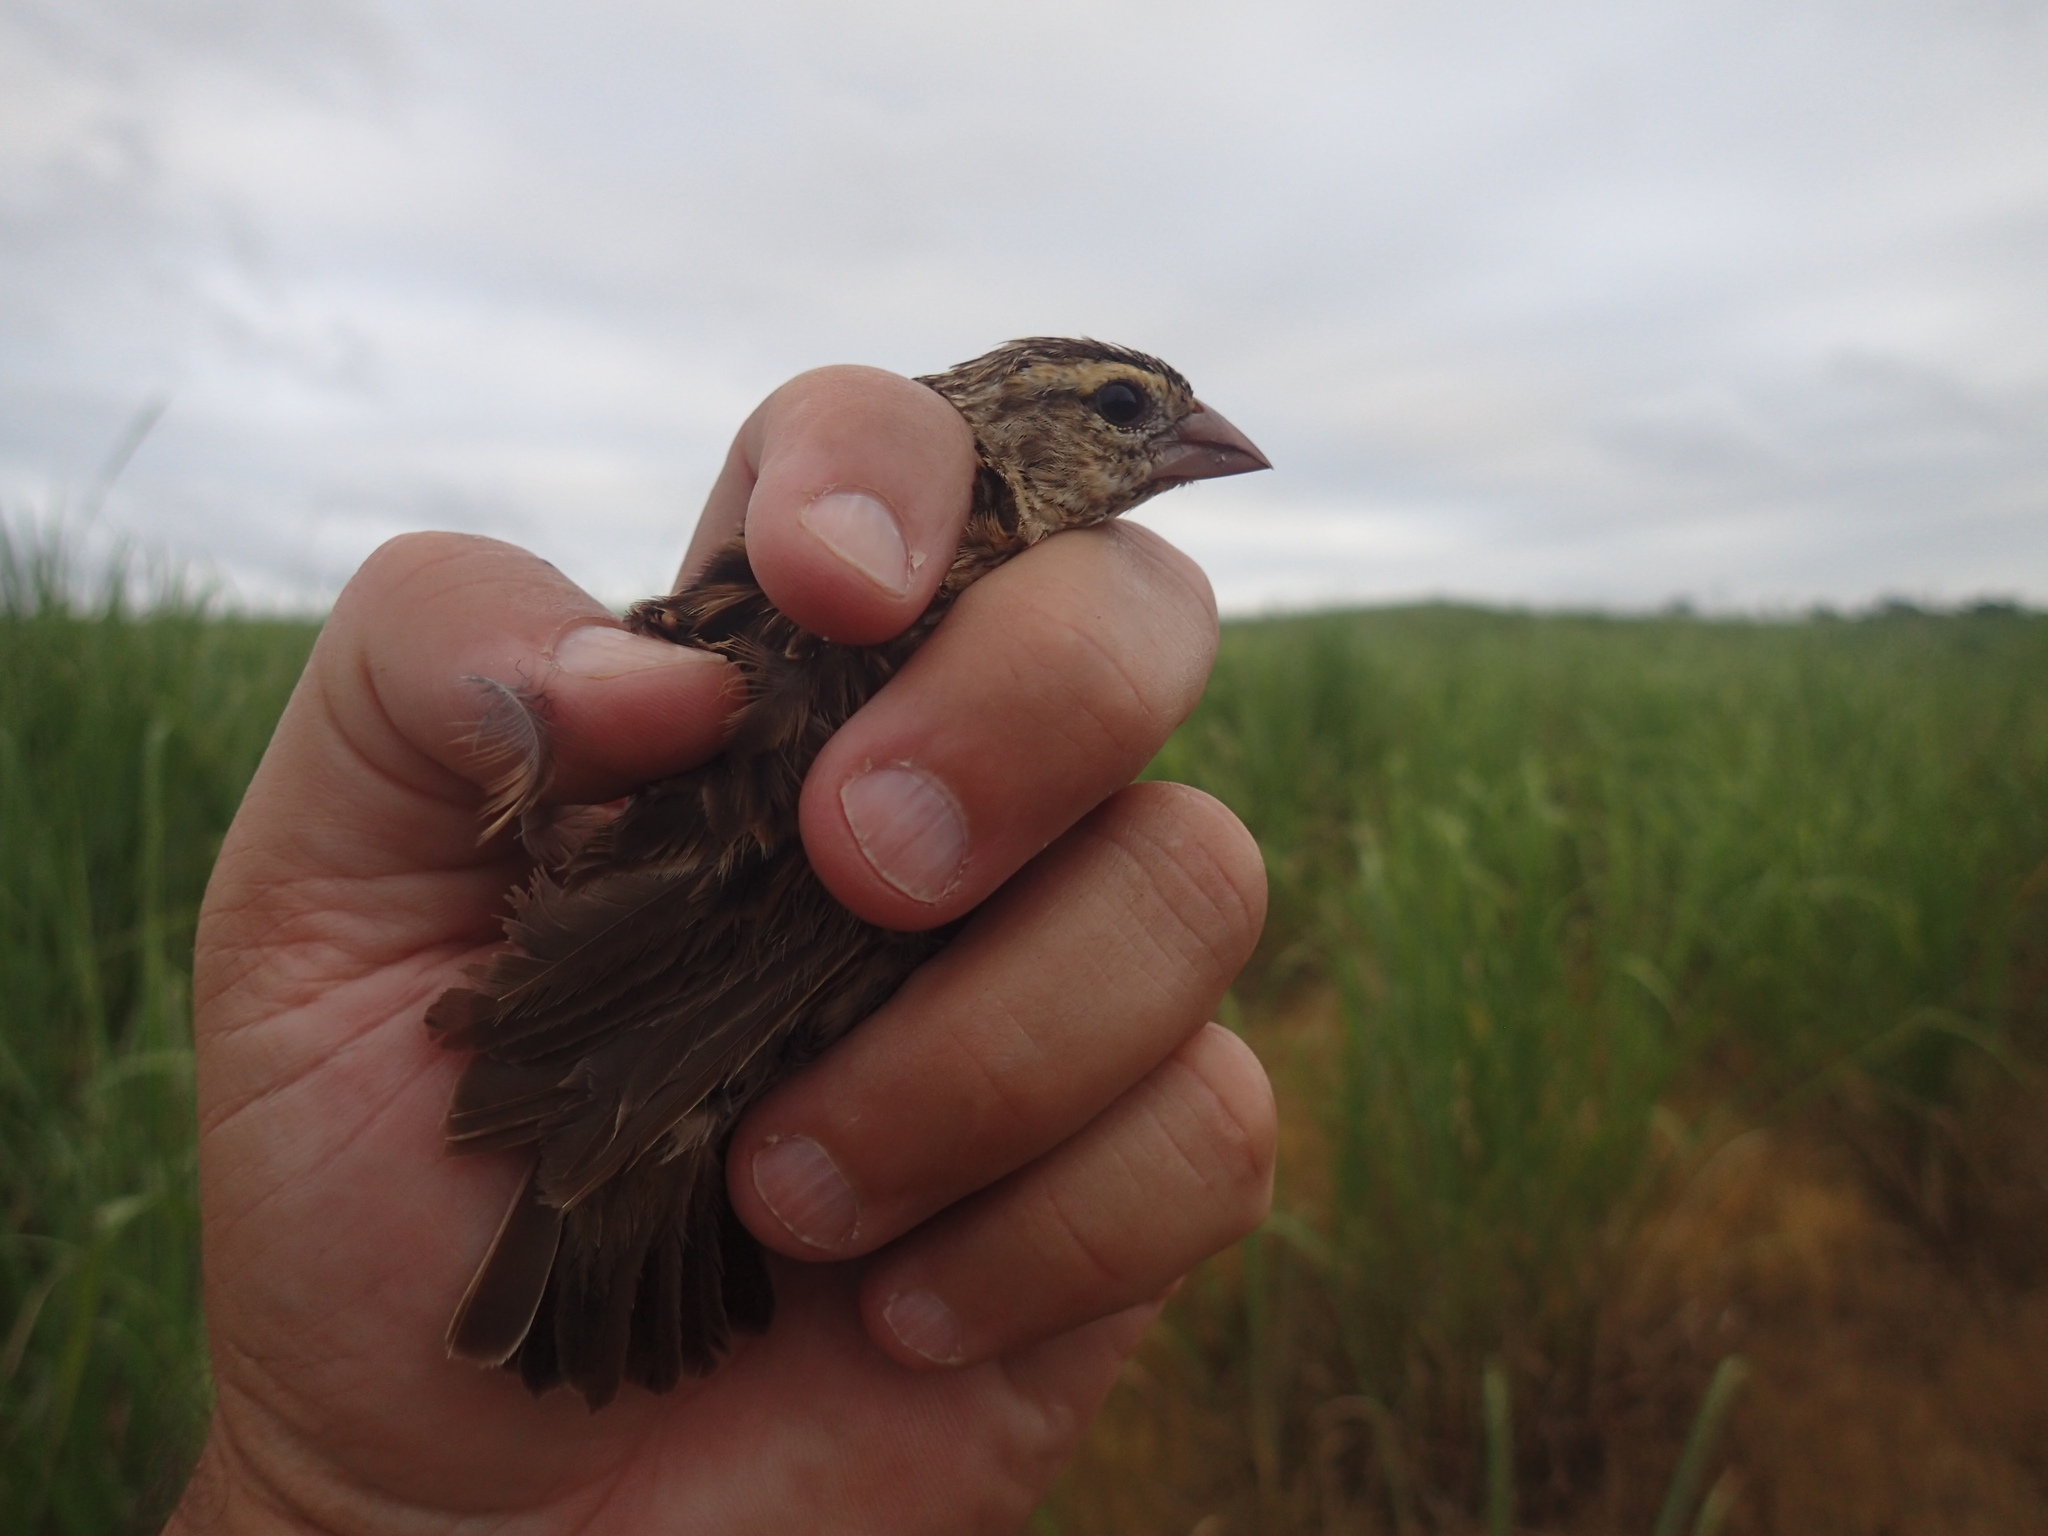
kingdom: Animalia
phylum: Chordata
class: Aves
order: Passeriformes
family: Ploceidae
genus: Euplectes
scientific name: Euplectes orix
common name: Southern red bishop
